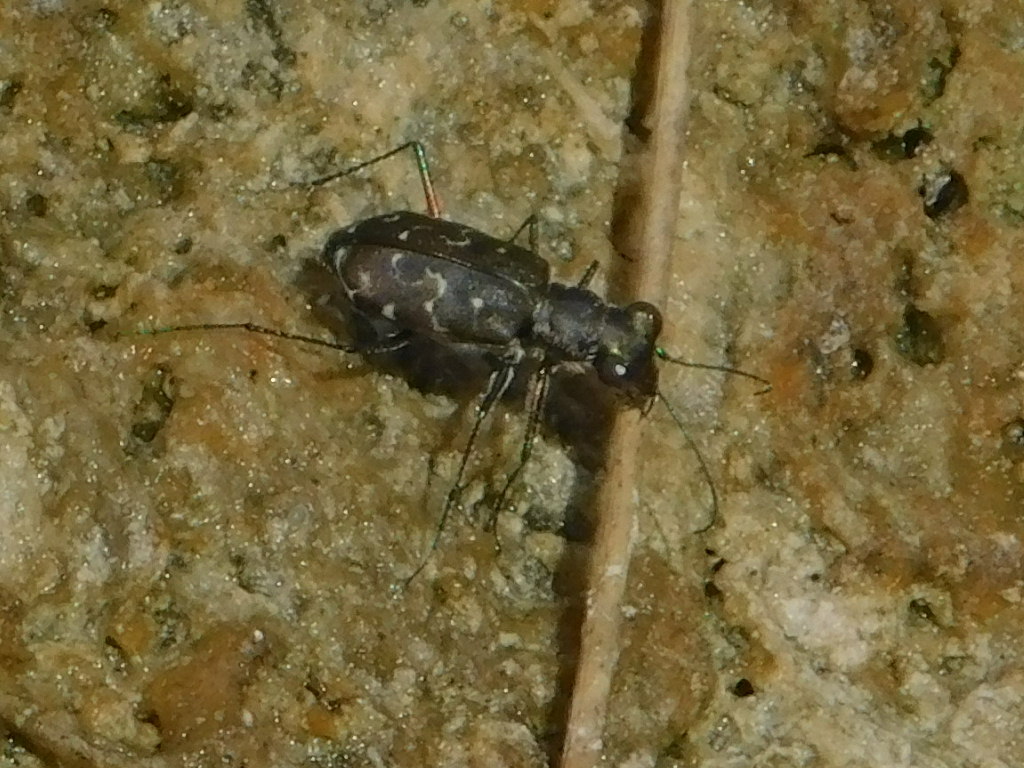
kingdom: Animalia
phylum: Arthropoda
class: Insecta
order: Coleoptera
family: Carabidae
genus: Cicindela
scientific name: Cicindela trifasciata
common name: Mudflat tiger beetle
